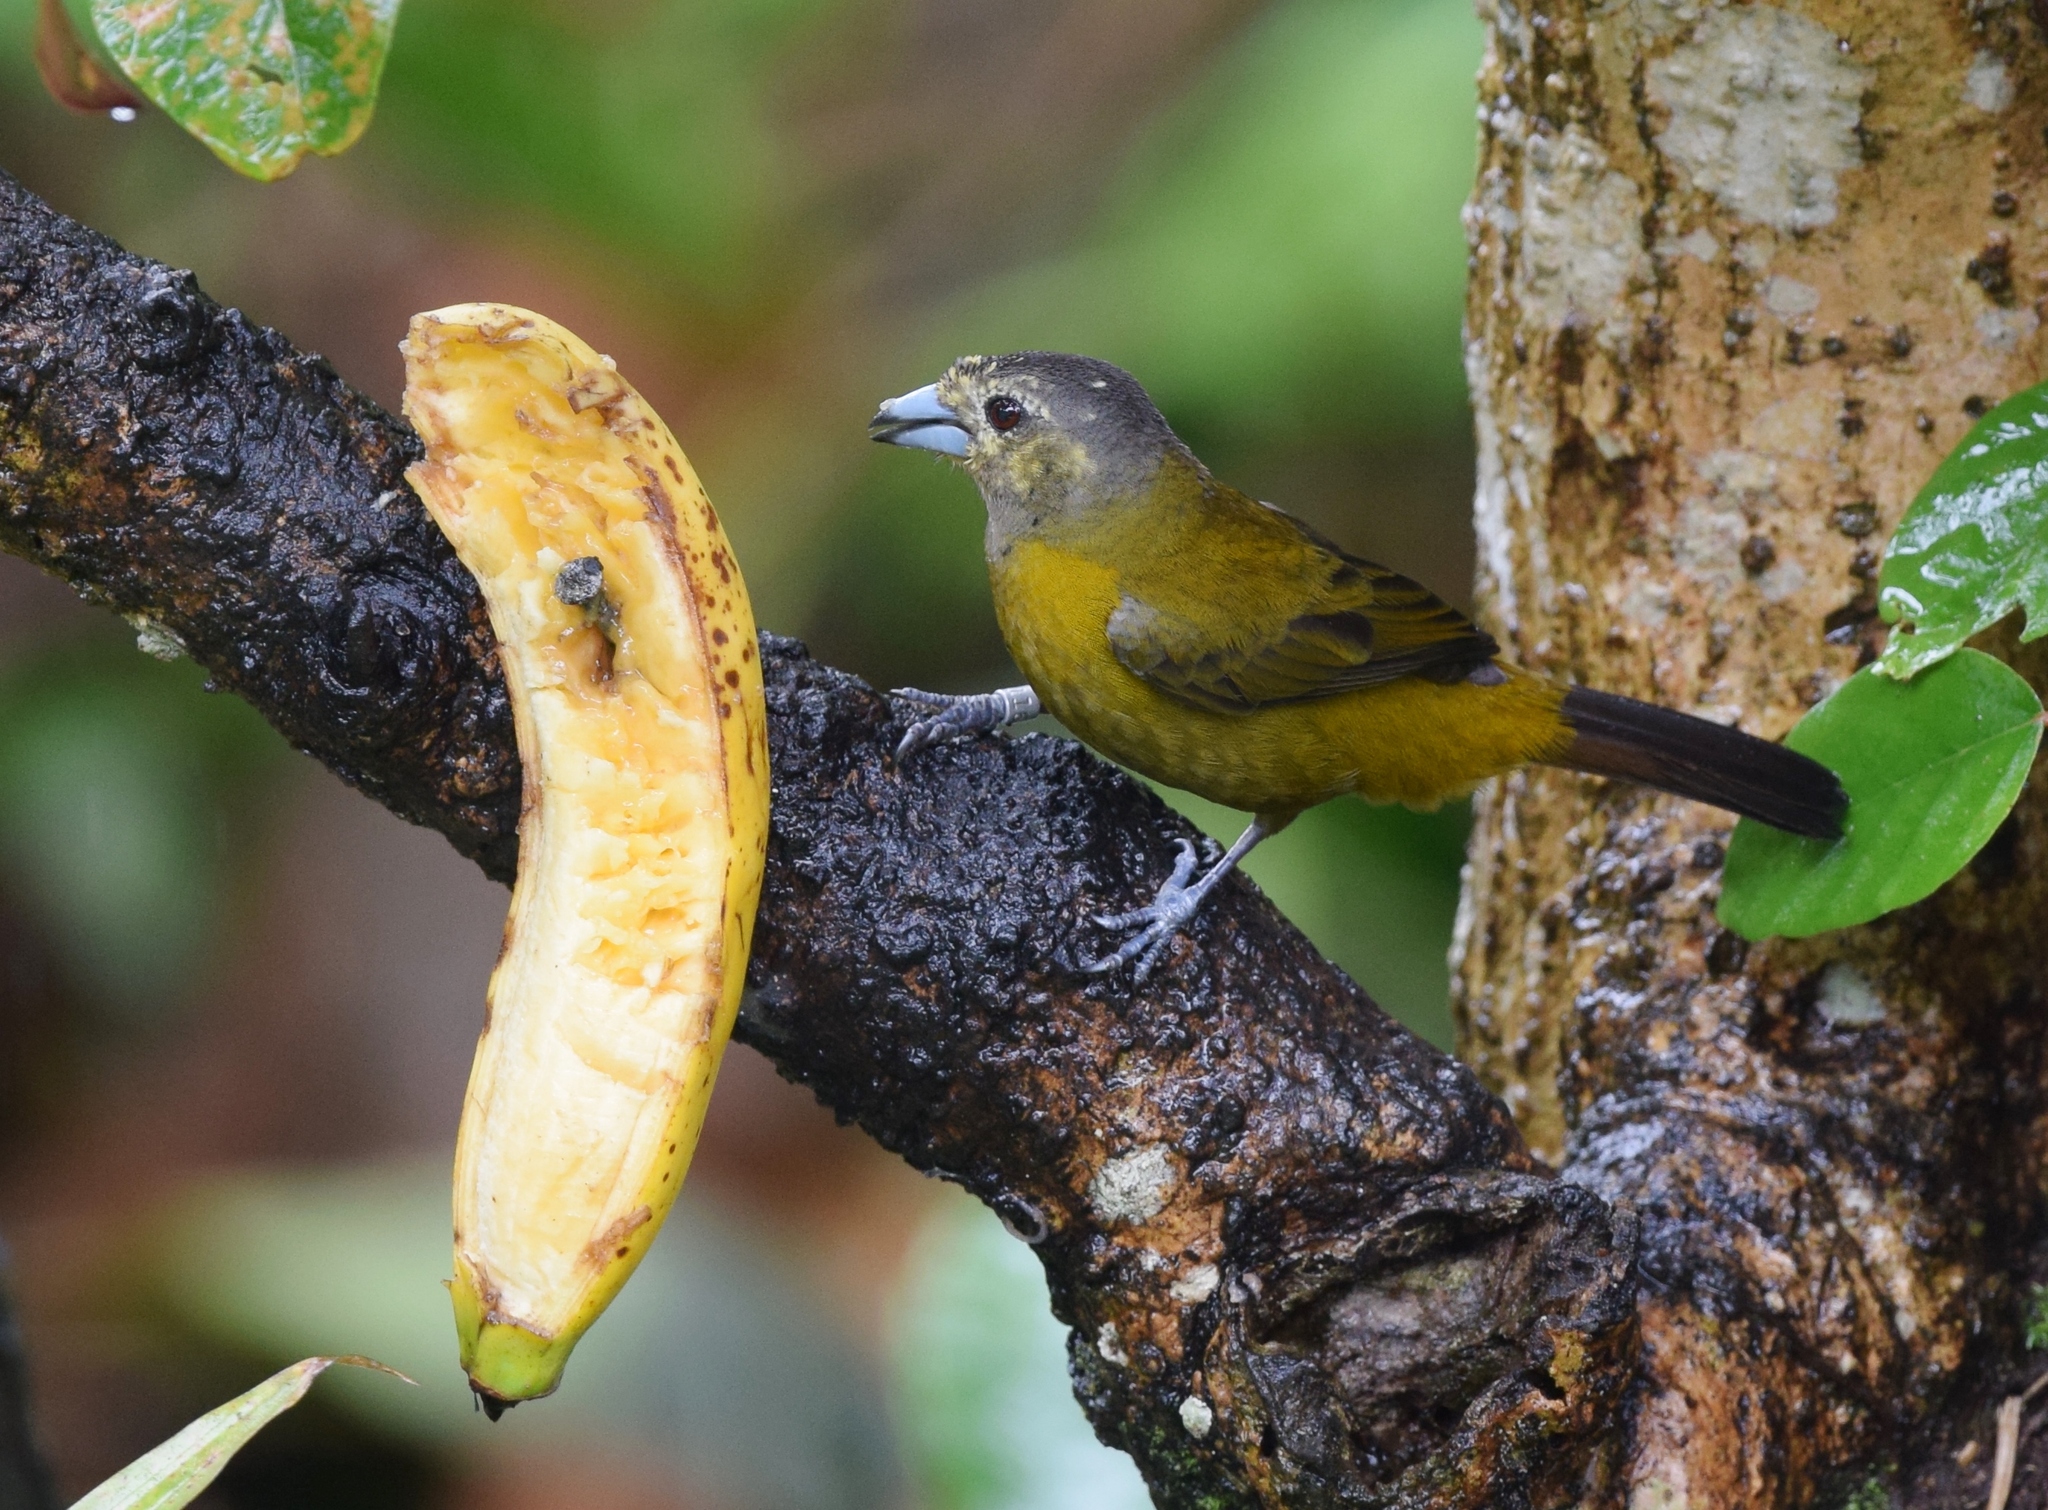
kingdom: Animalia
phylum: Chordata
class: Aves
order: Passeriformes
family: Thraupidae
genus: Ramphocelus
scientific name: Ramphocelus passerinii
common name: Passerini's tanager
